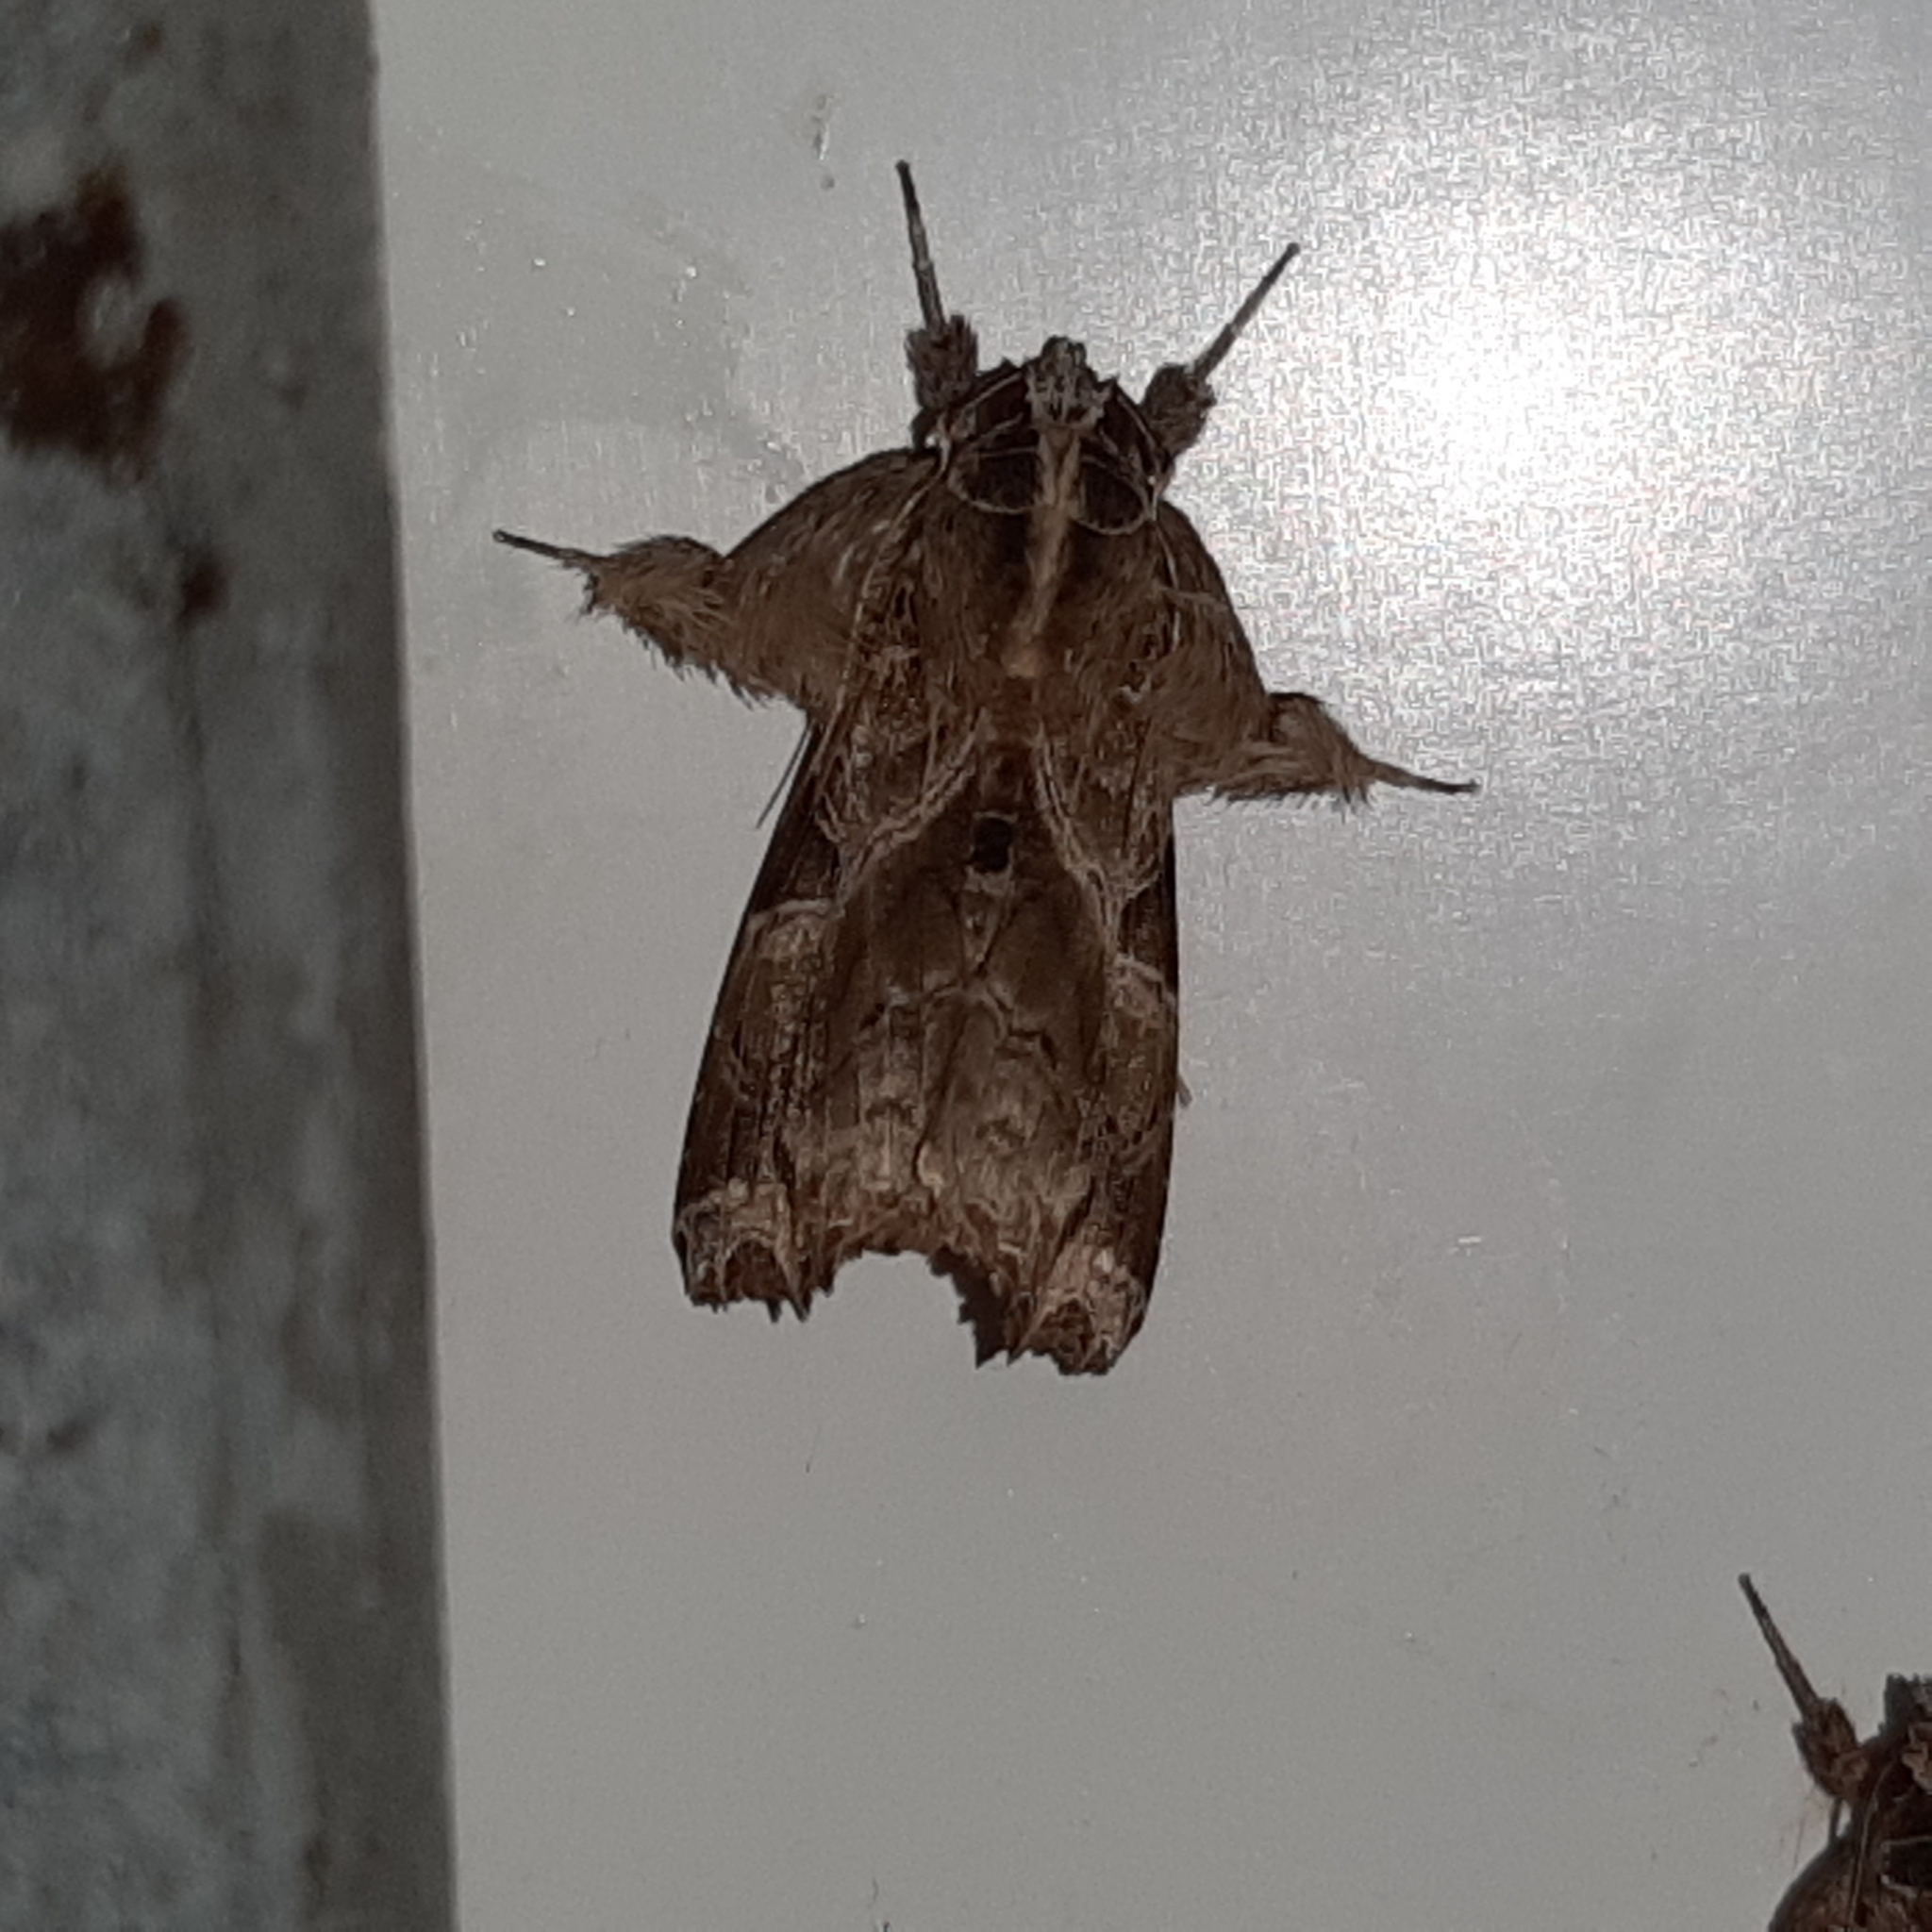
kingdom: Animalia
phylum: Arthropoda
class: Insecta
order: Lepidoptera
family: Noctuidae
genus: Callopistria
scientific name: Callopistria floridensis
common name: Florida fern moth
